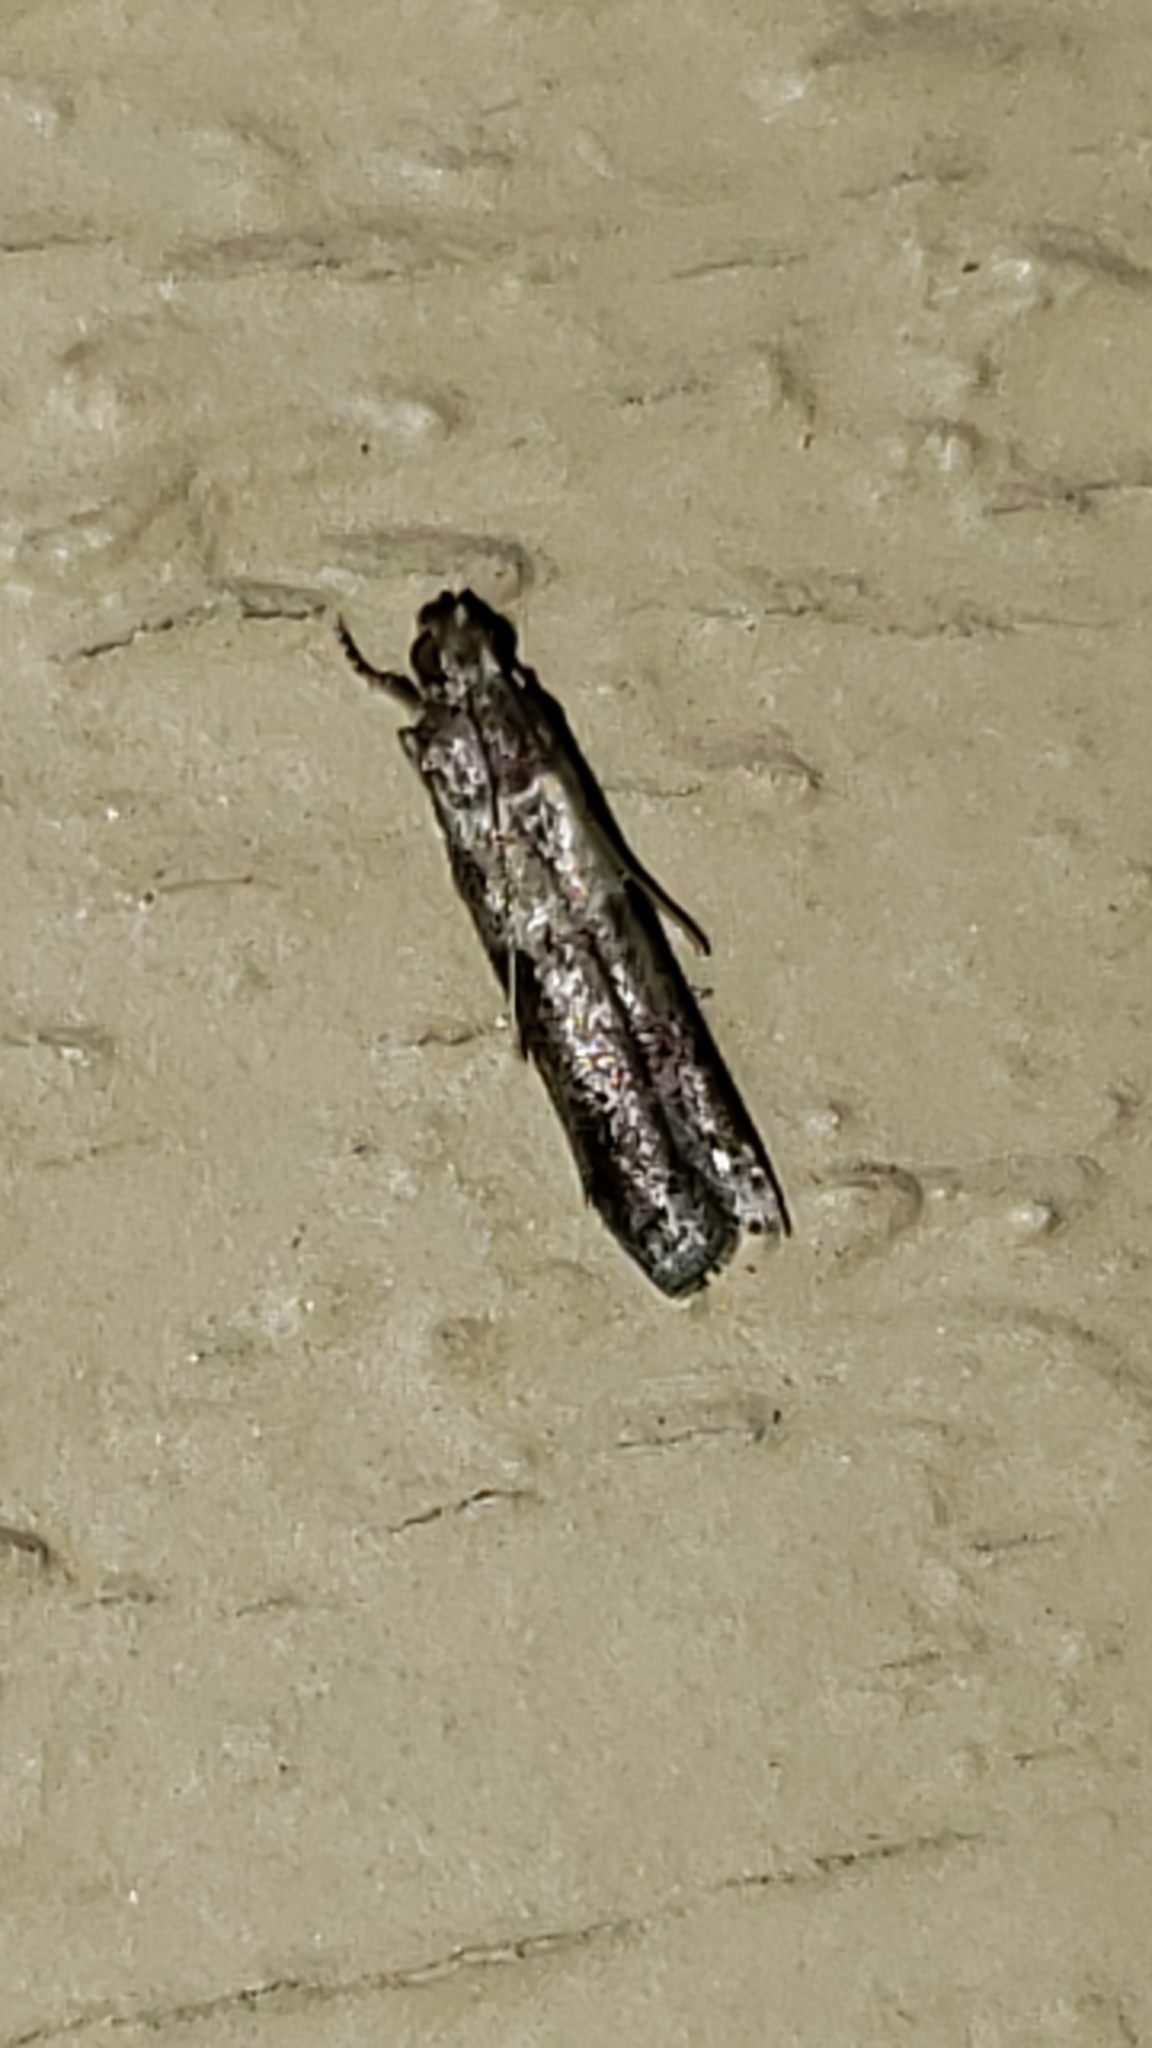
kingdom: Animalia
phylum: Arthropoda
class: Insecta
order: Lepidoptera
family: Pyralidae
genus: Ephestiodes
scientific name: Ephestiodes infimella
